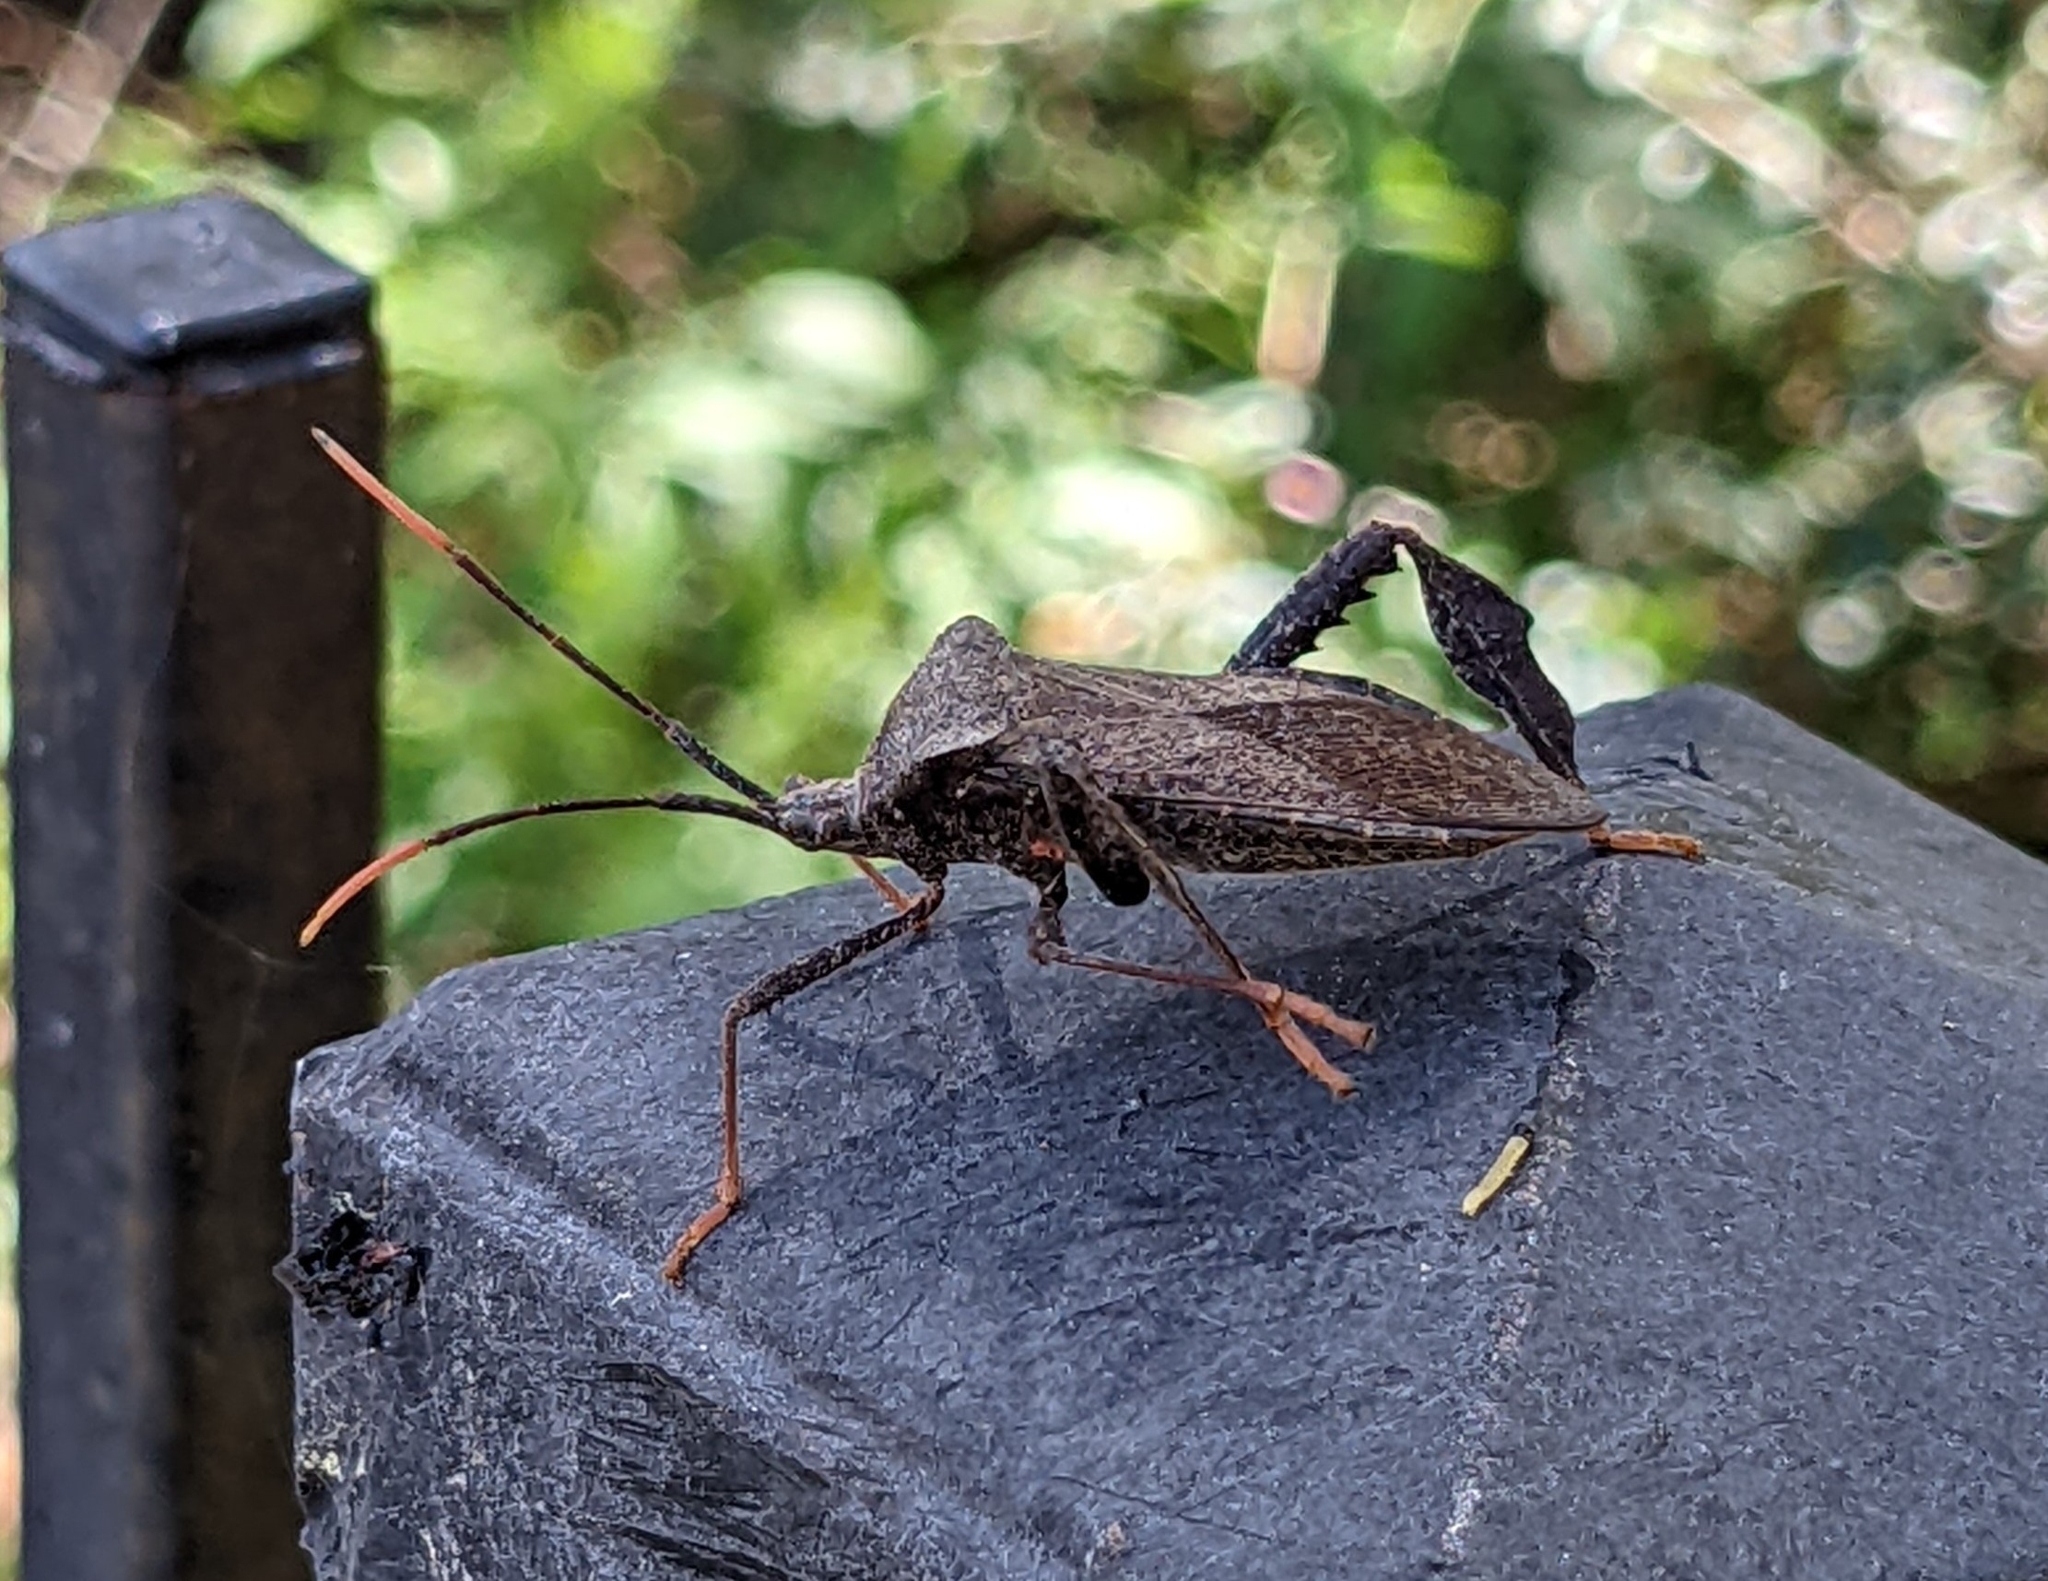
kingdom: Animalia
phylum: Arthropoda
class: Insecta
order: Hemiptera
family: Coreidae
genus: Acanthocephala
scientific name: Acanthocephala terminalis
